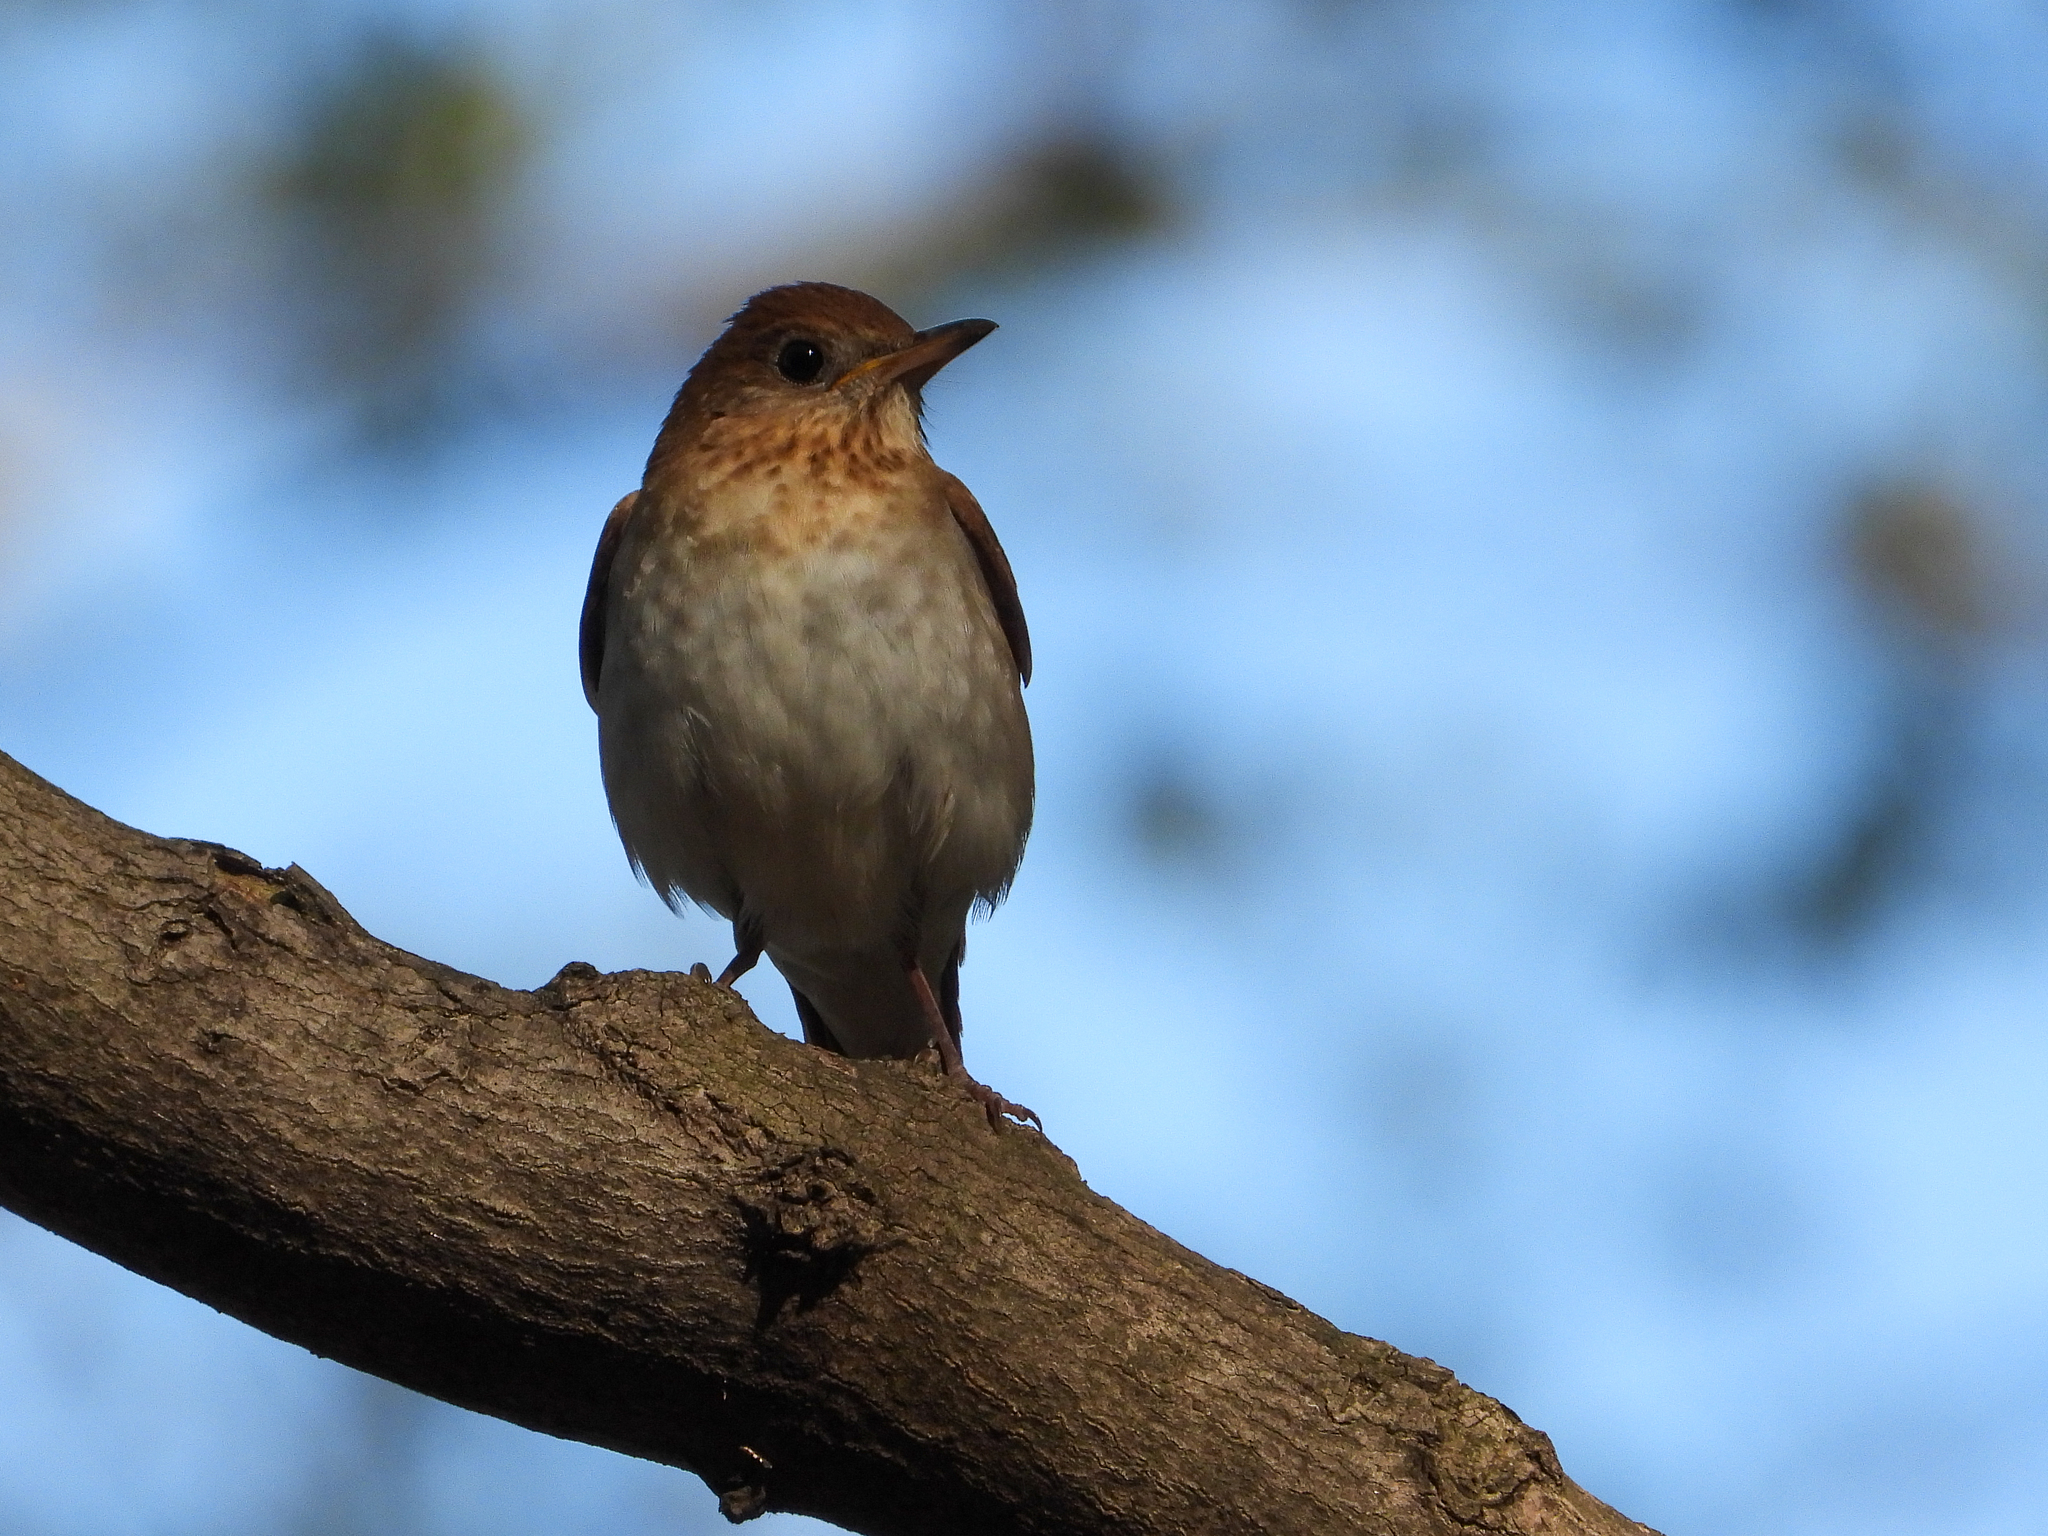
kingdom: Animalia
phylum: Chordata
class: Aves
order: Passeriformes
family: Turdidae
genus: Catharus
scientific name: Catharus fuscescens
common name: Veery
